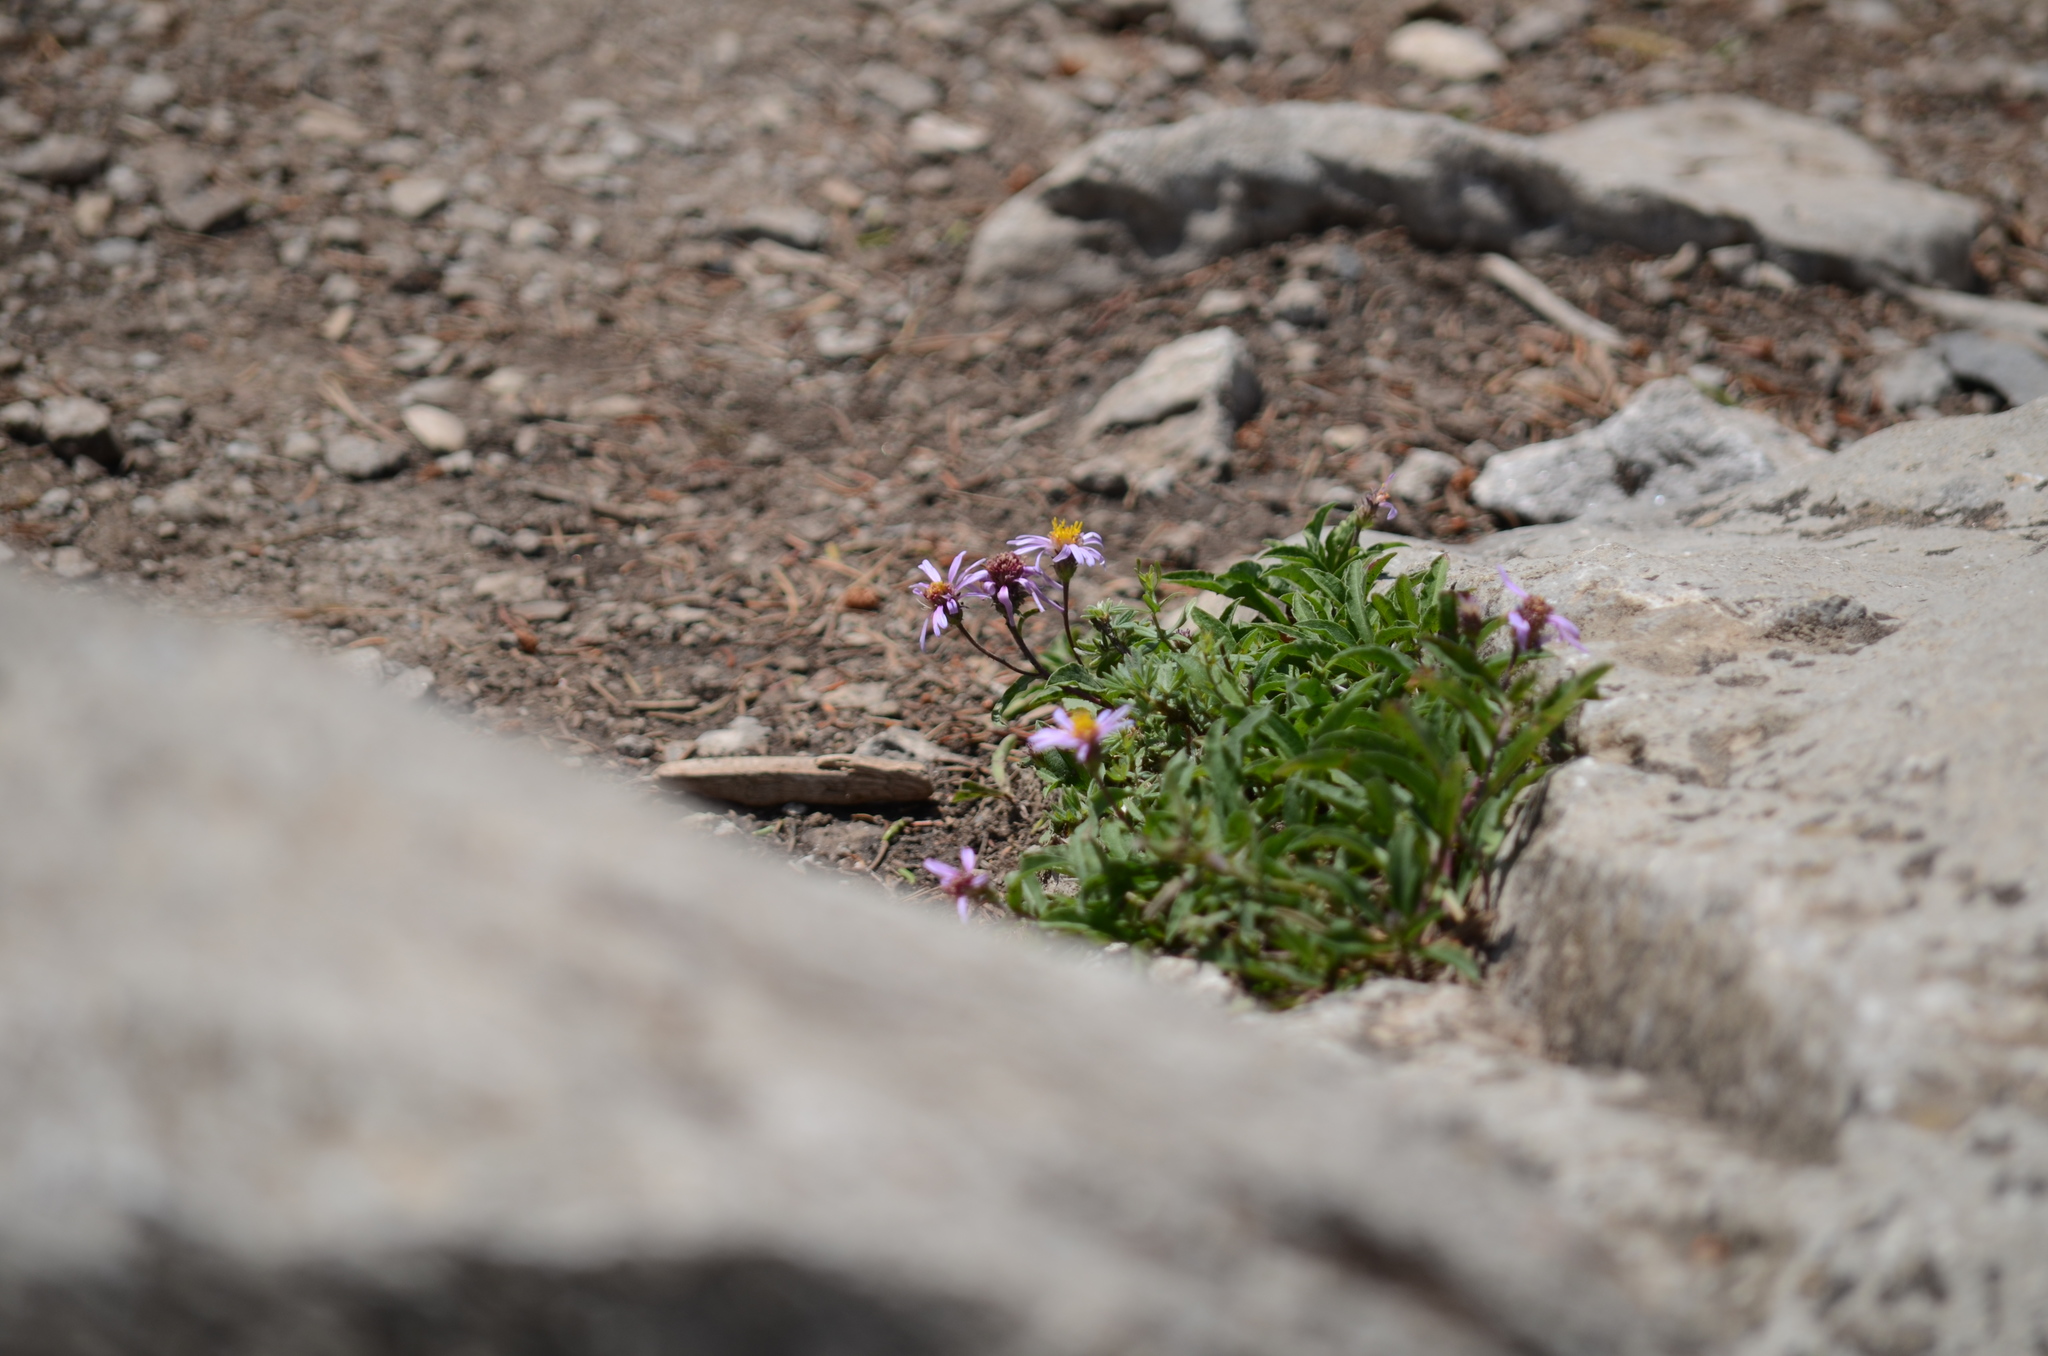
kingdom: Plantae
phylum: Tracheophyta
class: Magnoliopsida
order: Asterales
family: Asteraceae
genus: Eurybia
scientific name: Eurybia sibirica
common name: Arctic aster
